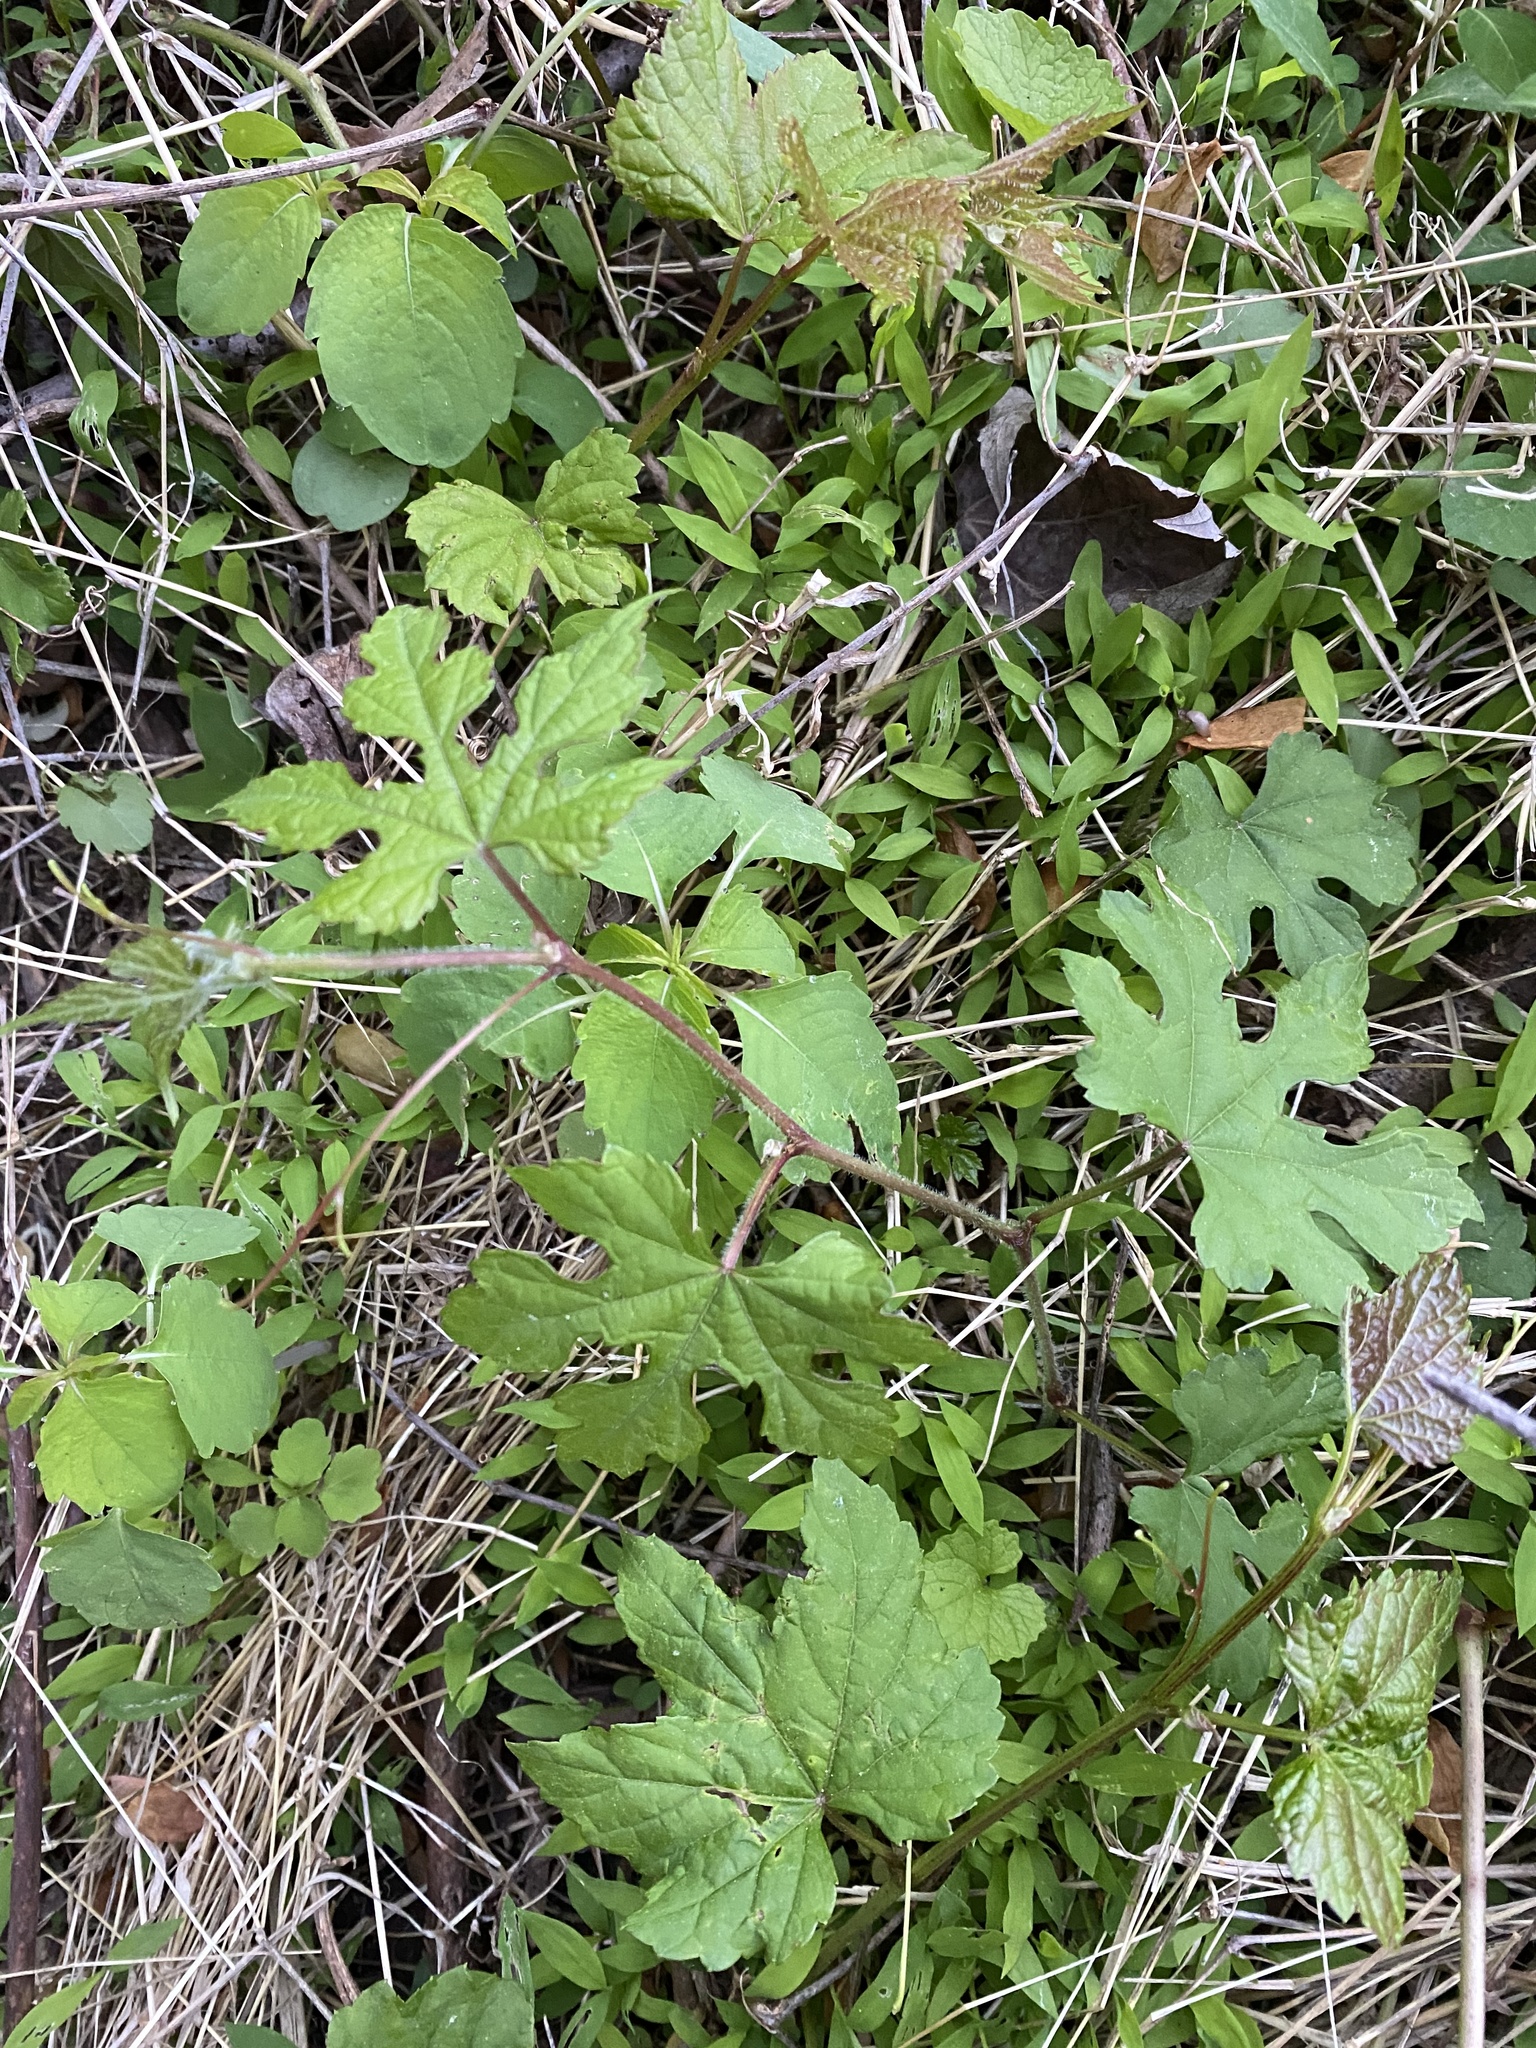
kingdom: Plantae
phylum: Tracheophyta
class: Magnoliopsida
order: Vitales
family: Vitaceae
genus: Ampelopsis
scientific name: Ampelopsis glandulosa
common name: Amur peppervine
